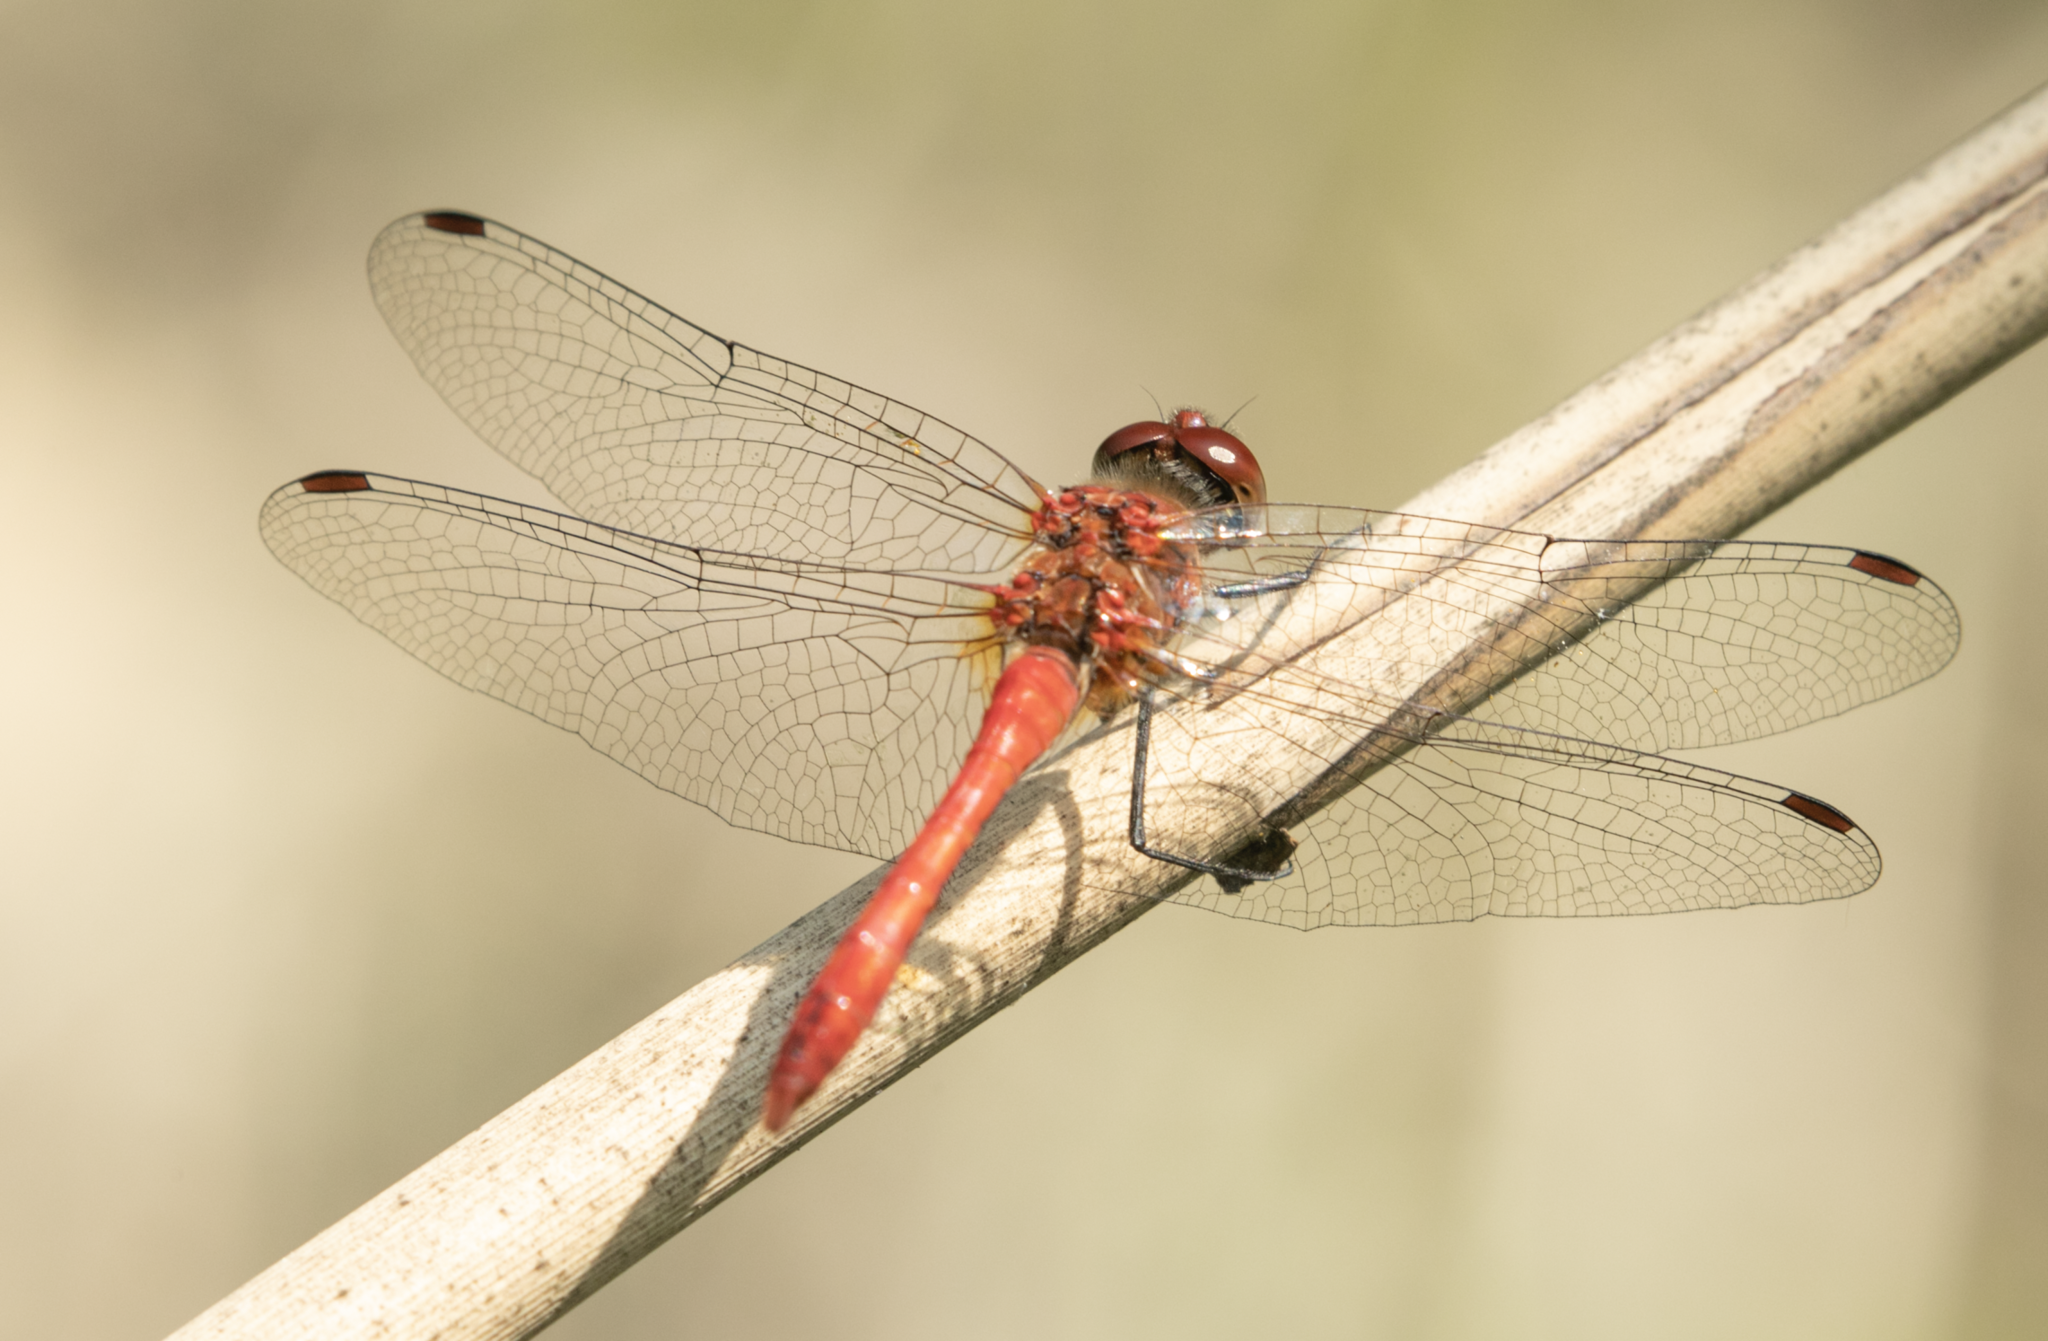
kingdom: Animalia
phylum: Arthropoda
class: Insecta
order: Odonata
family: Libellulidae
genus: Sympetrum
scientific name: Sympetrum sanguineum
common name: Ruddy darter
